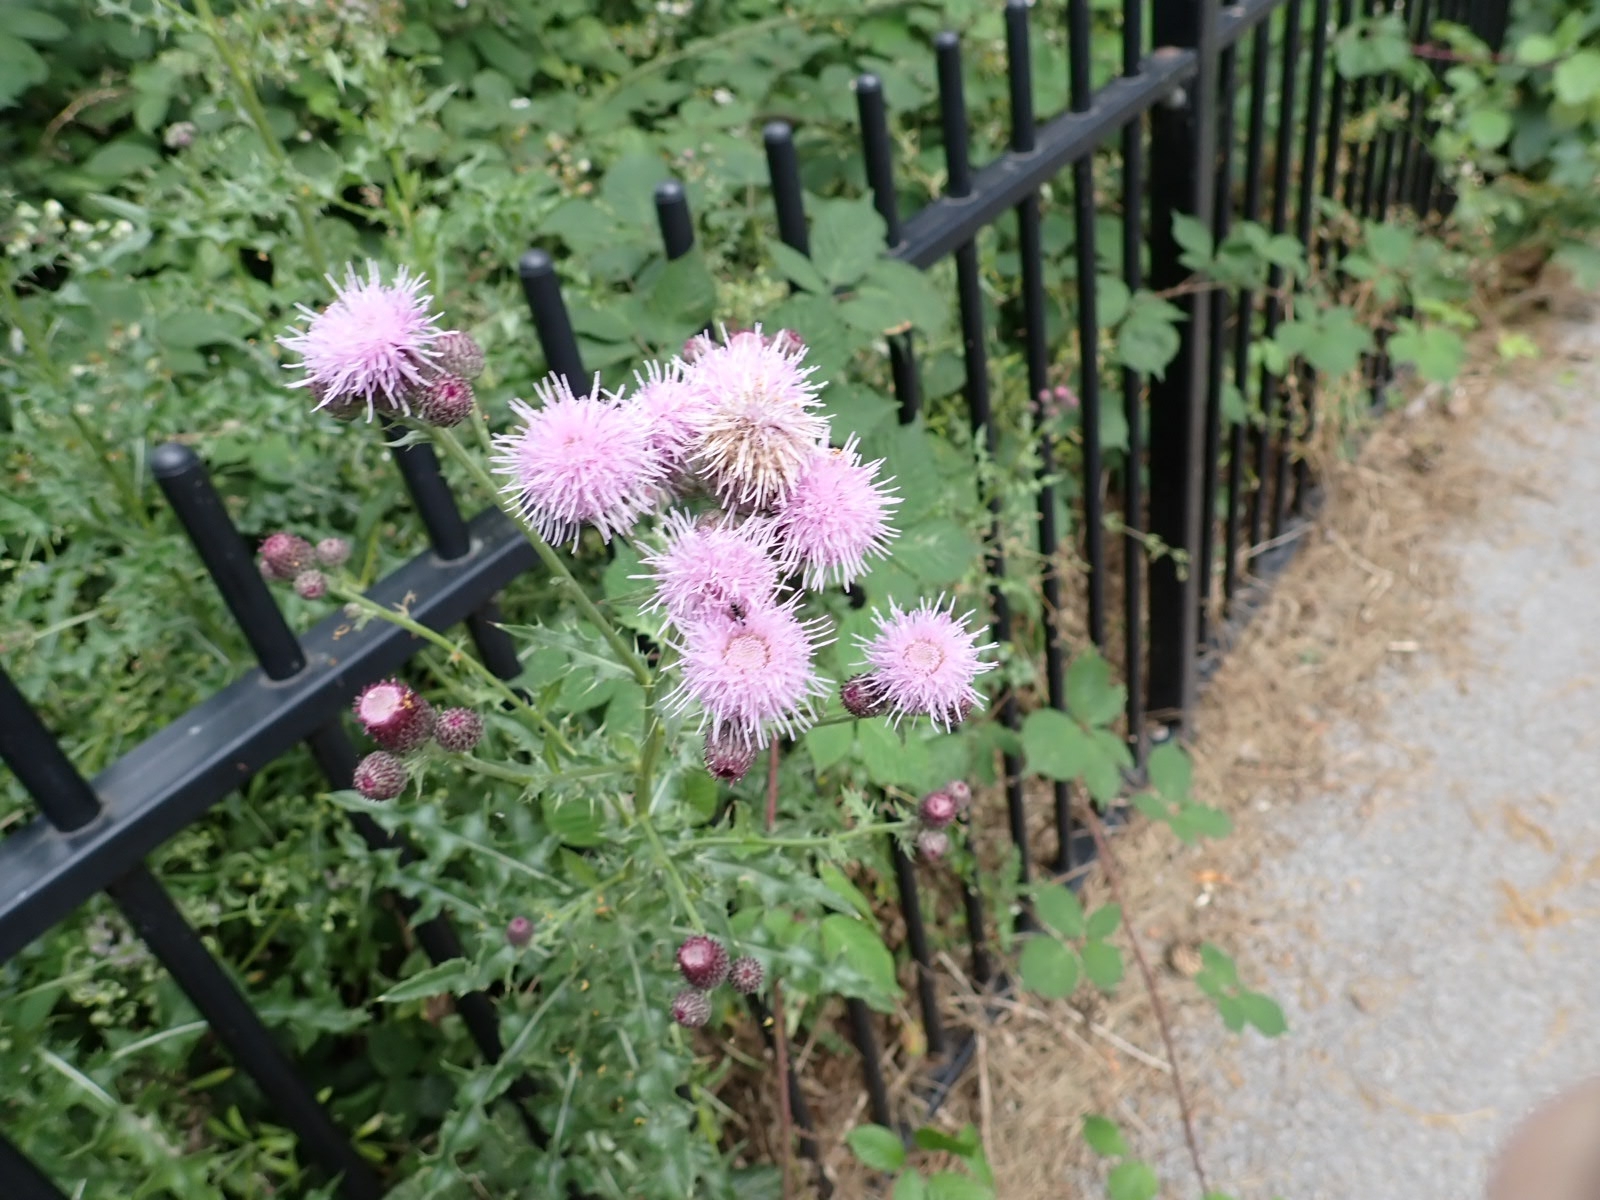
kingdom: Plantae
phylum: Tracheophyta
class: Magnoliopsida
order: Asterales
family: Asteraceae
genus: Cirsium
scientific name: Cirsium arvense
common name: Creeping thistle
